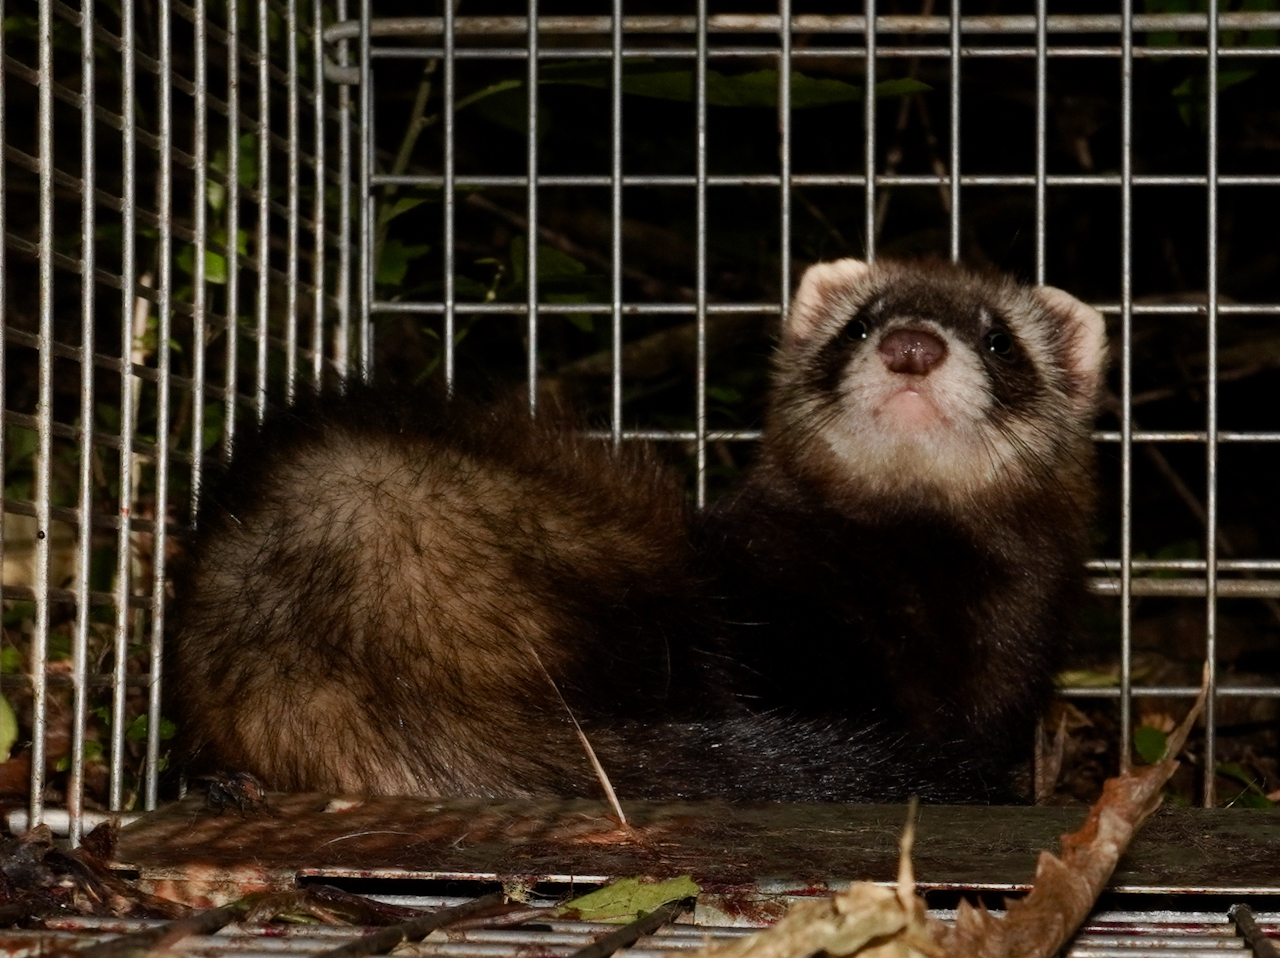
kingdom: Animalia
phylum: Chordata
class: Mammalia
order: Carnivora
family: Mustelidae
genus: Mustela
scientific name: Mustela putorius
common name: European polecat
